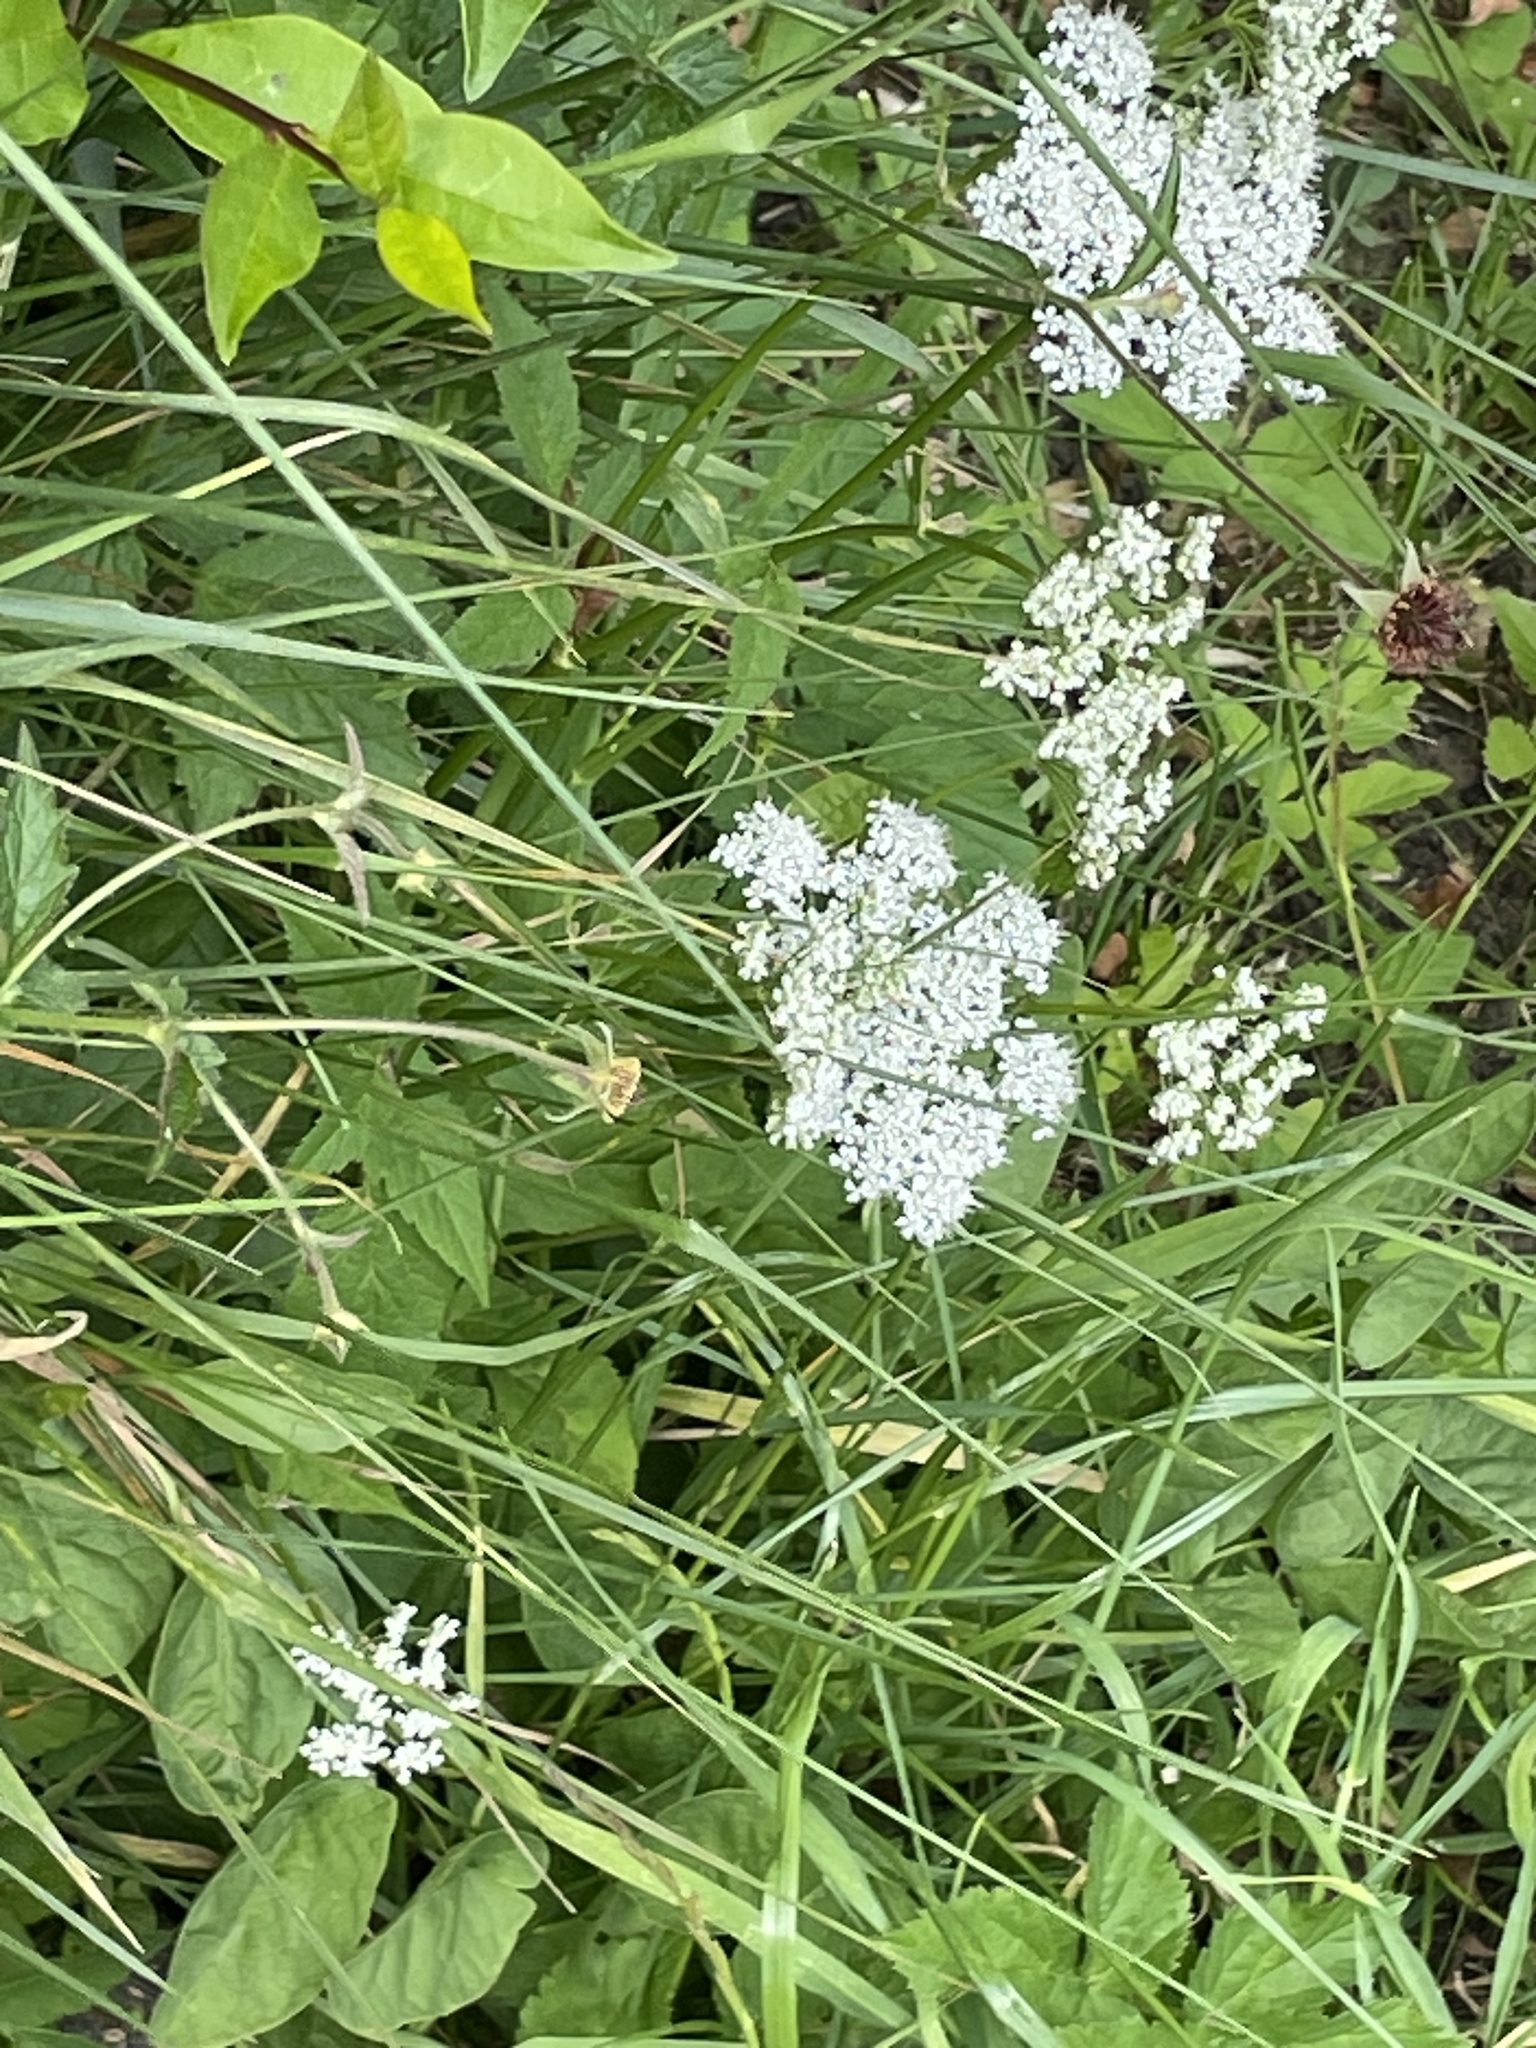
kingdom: Plantae
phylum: Tracheophyta
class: Magnoliopsida
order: Apiales
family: Apiaceae
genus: Aegopodium
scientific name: Aegopodium podagraria
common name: Ground-elder
